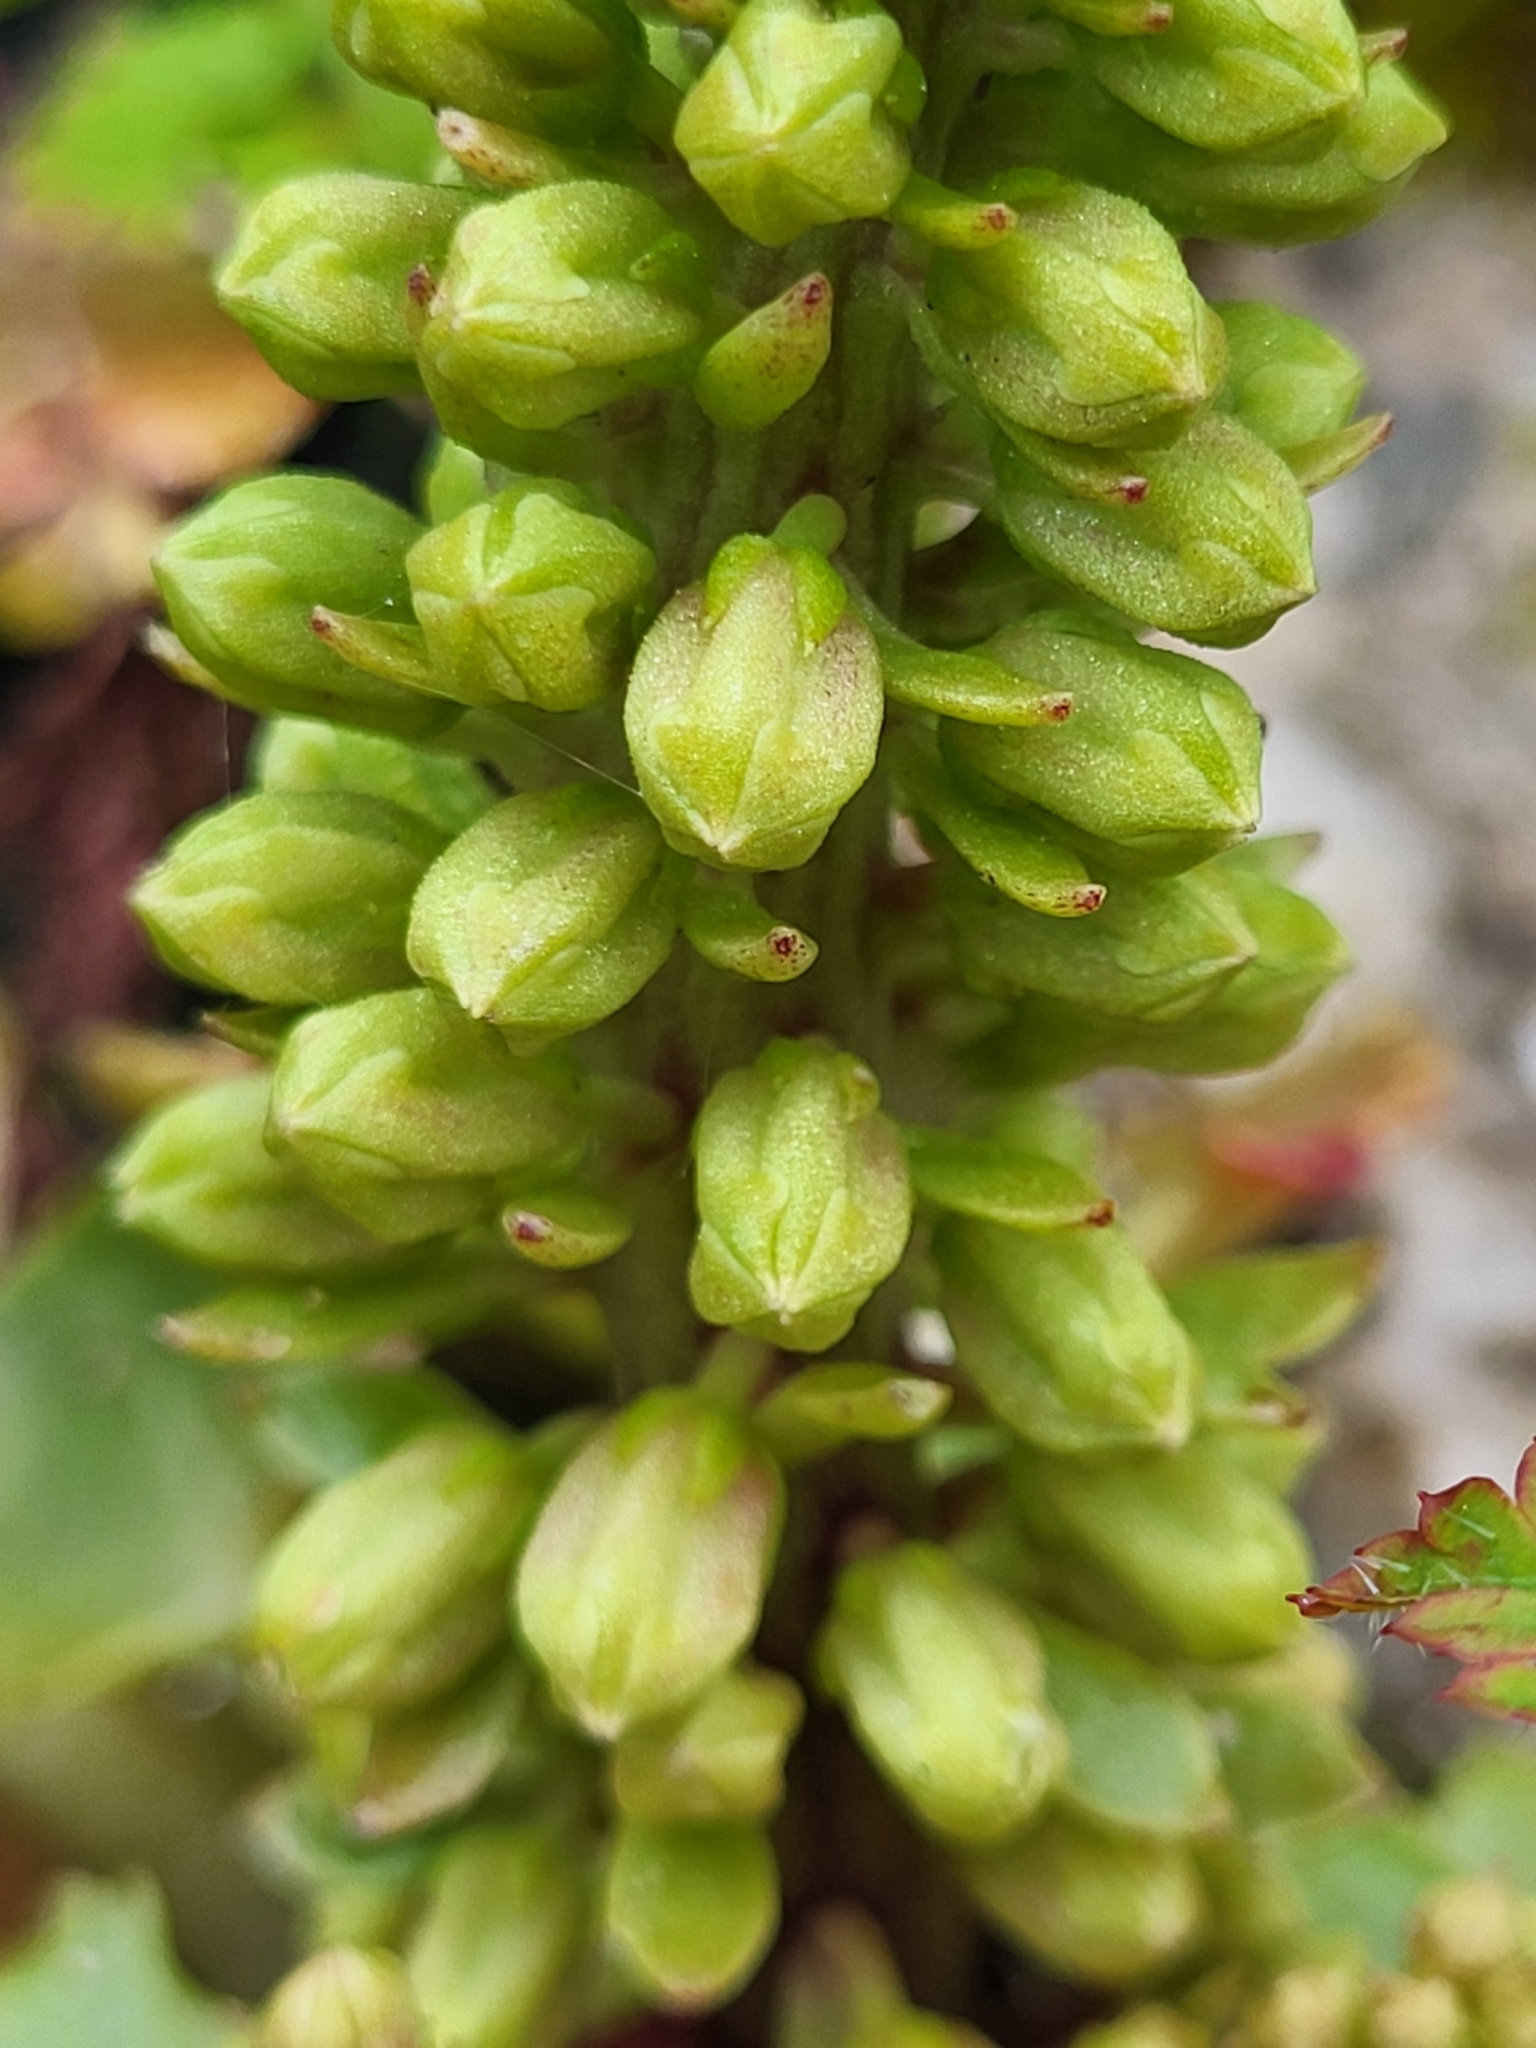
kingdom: Plantae
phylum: Tracheophyta
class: Magnoliopsida
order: Saxifragales
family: Crassulaceae
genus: Umbilicus
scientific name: Umbilicus rupestris
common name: Navelwort
